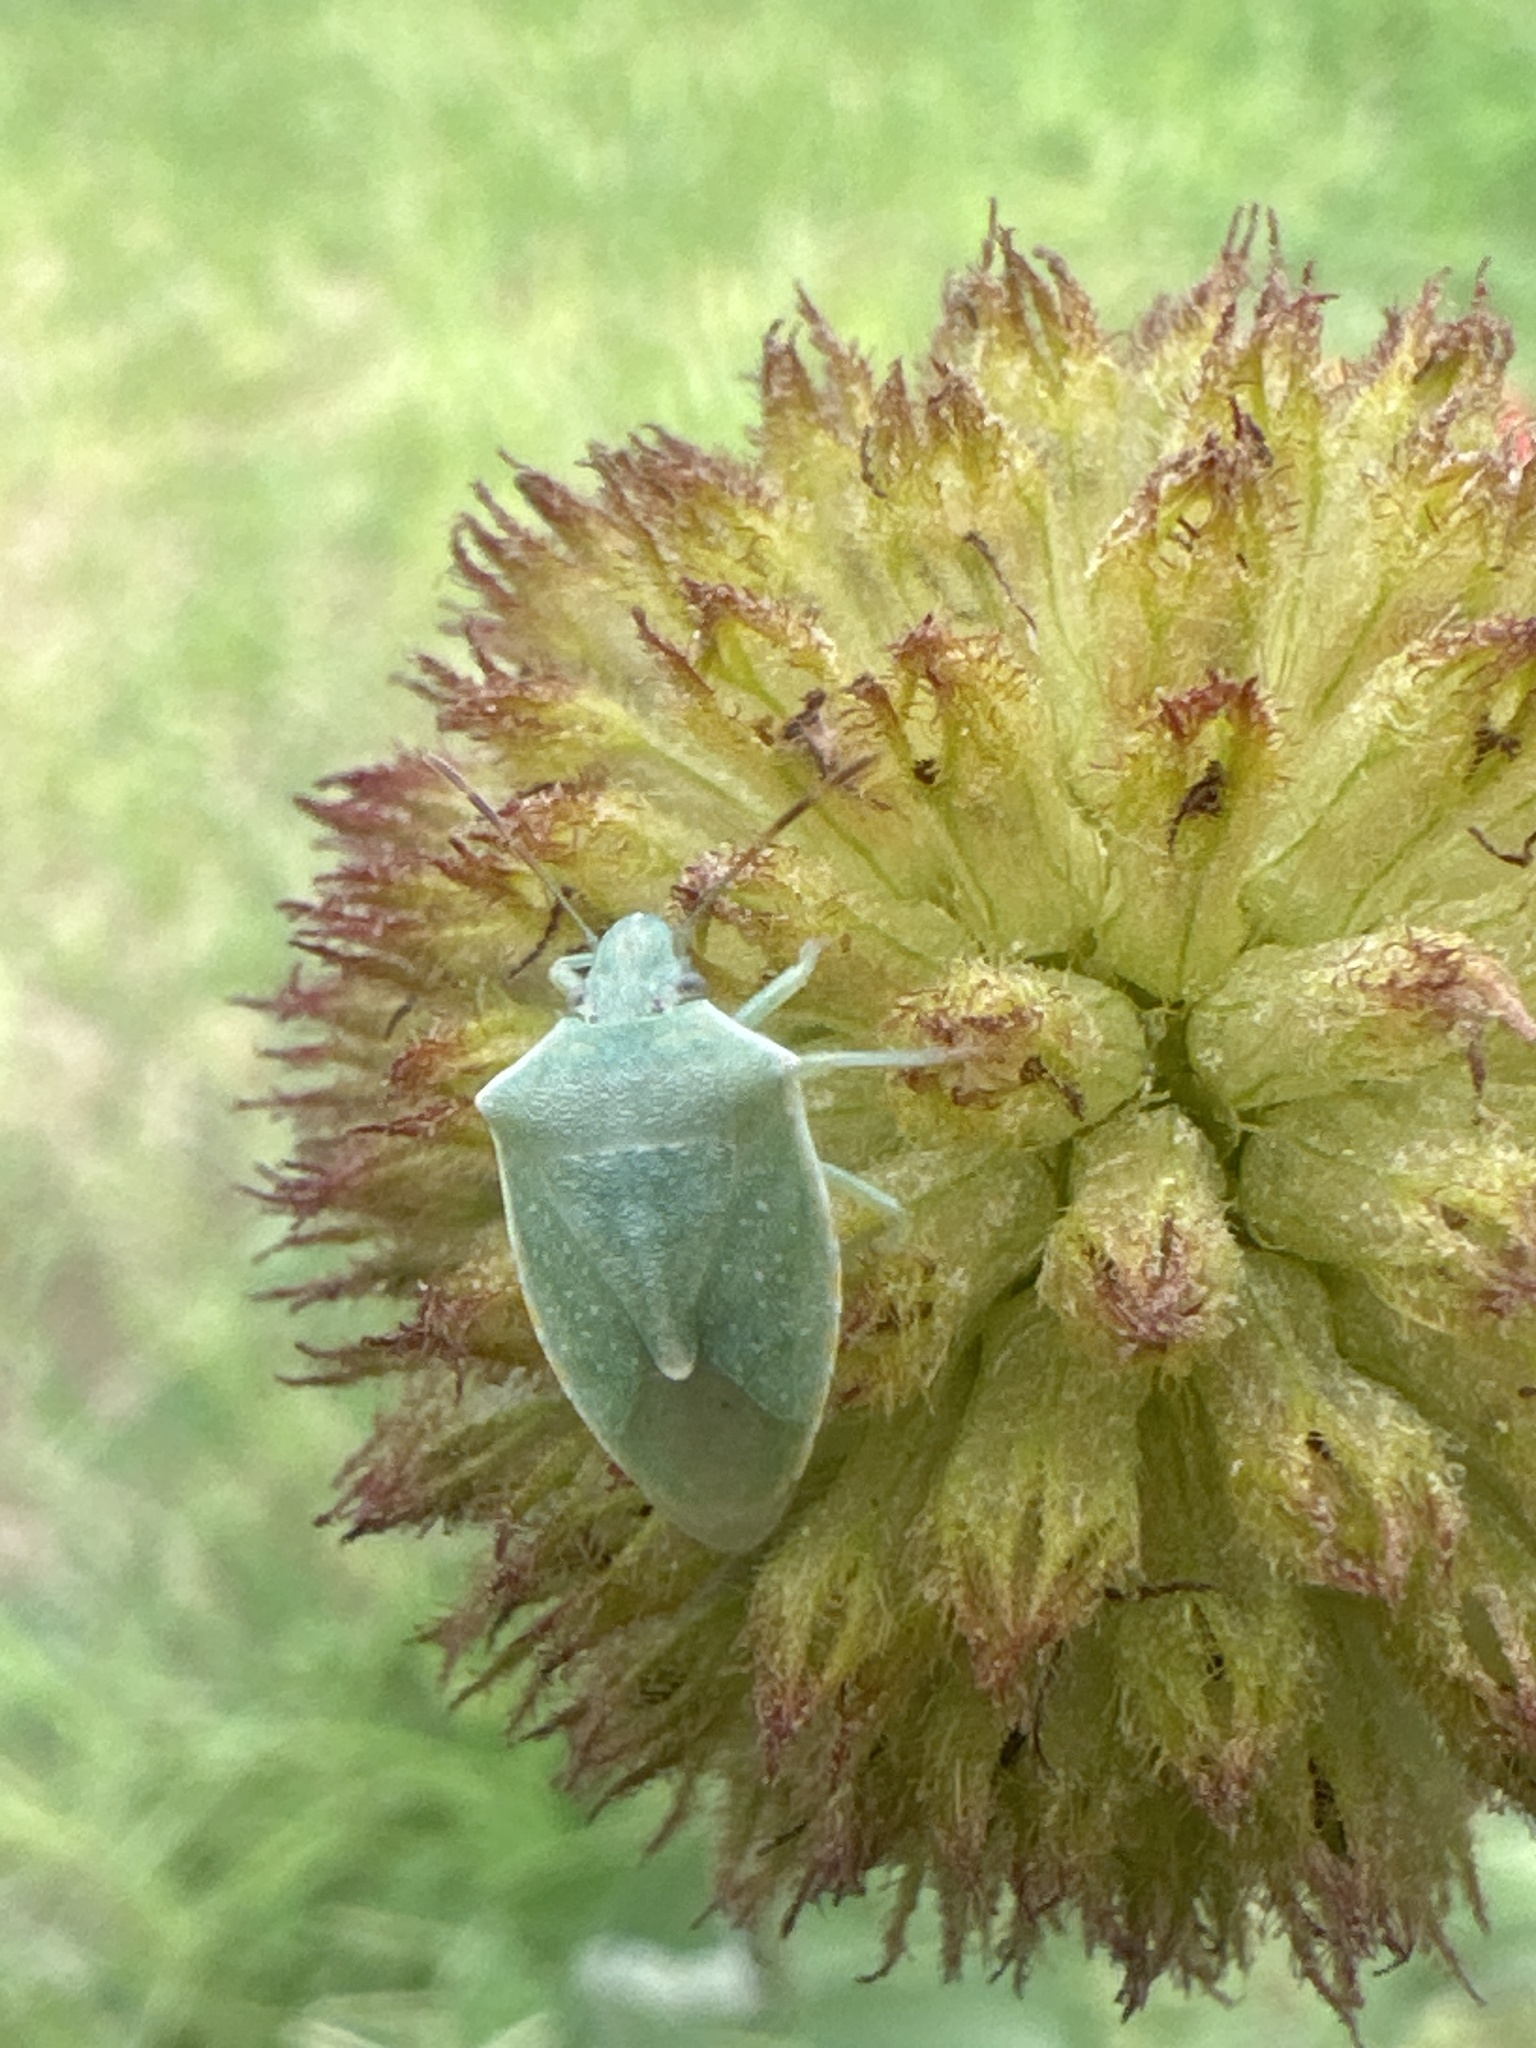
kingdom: Animalia
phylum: Arthropoda
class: Insecta
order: Hemiptera
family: Pentatomidae
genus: Thyanta
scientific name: Thyanta custator
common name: Stink bug
